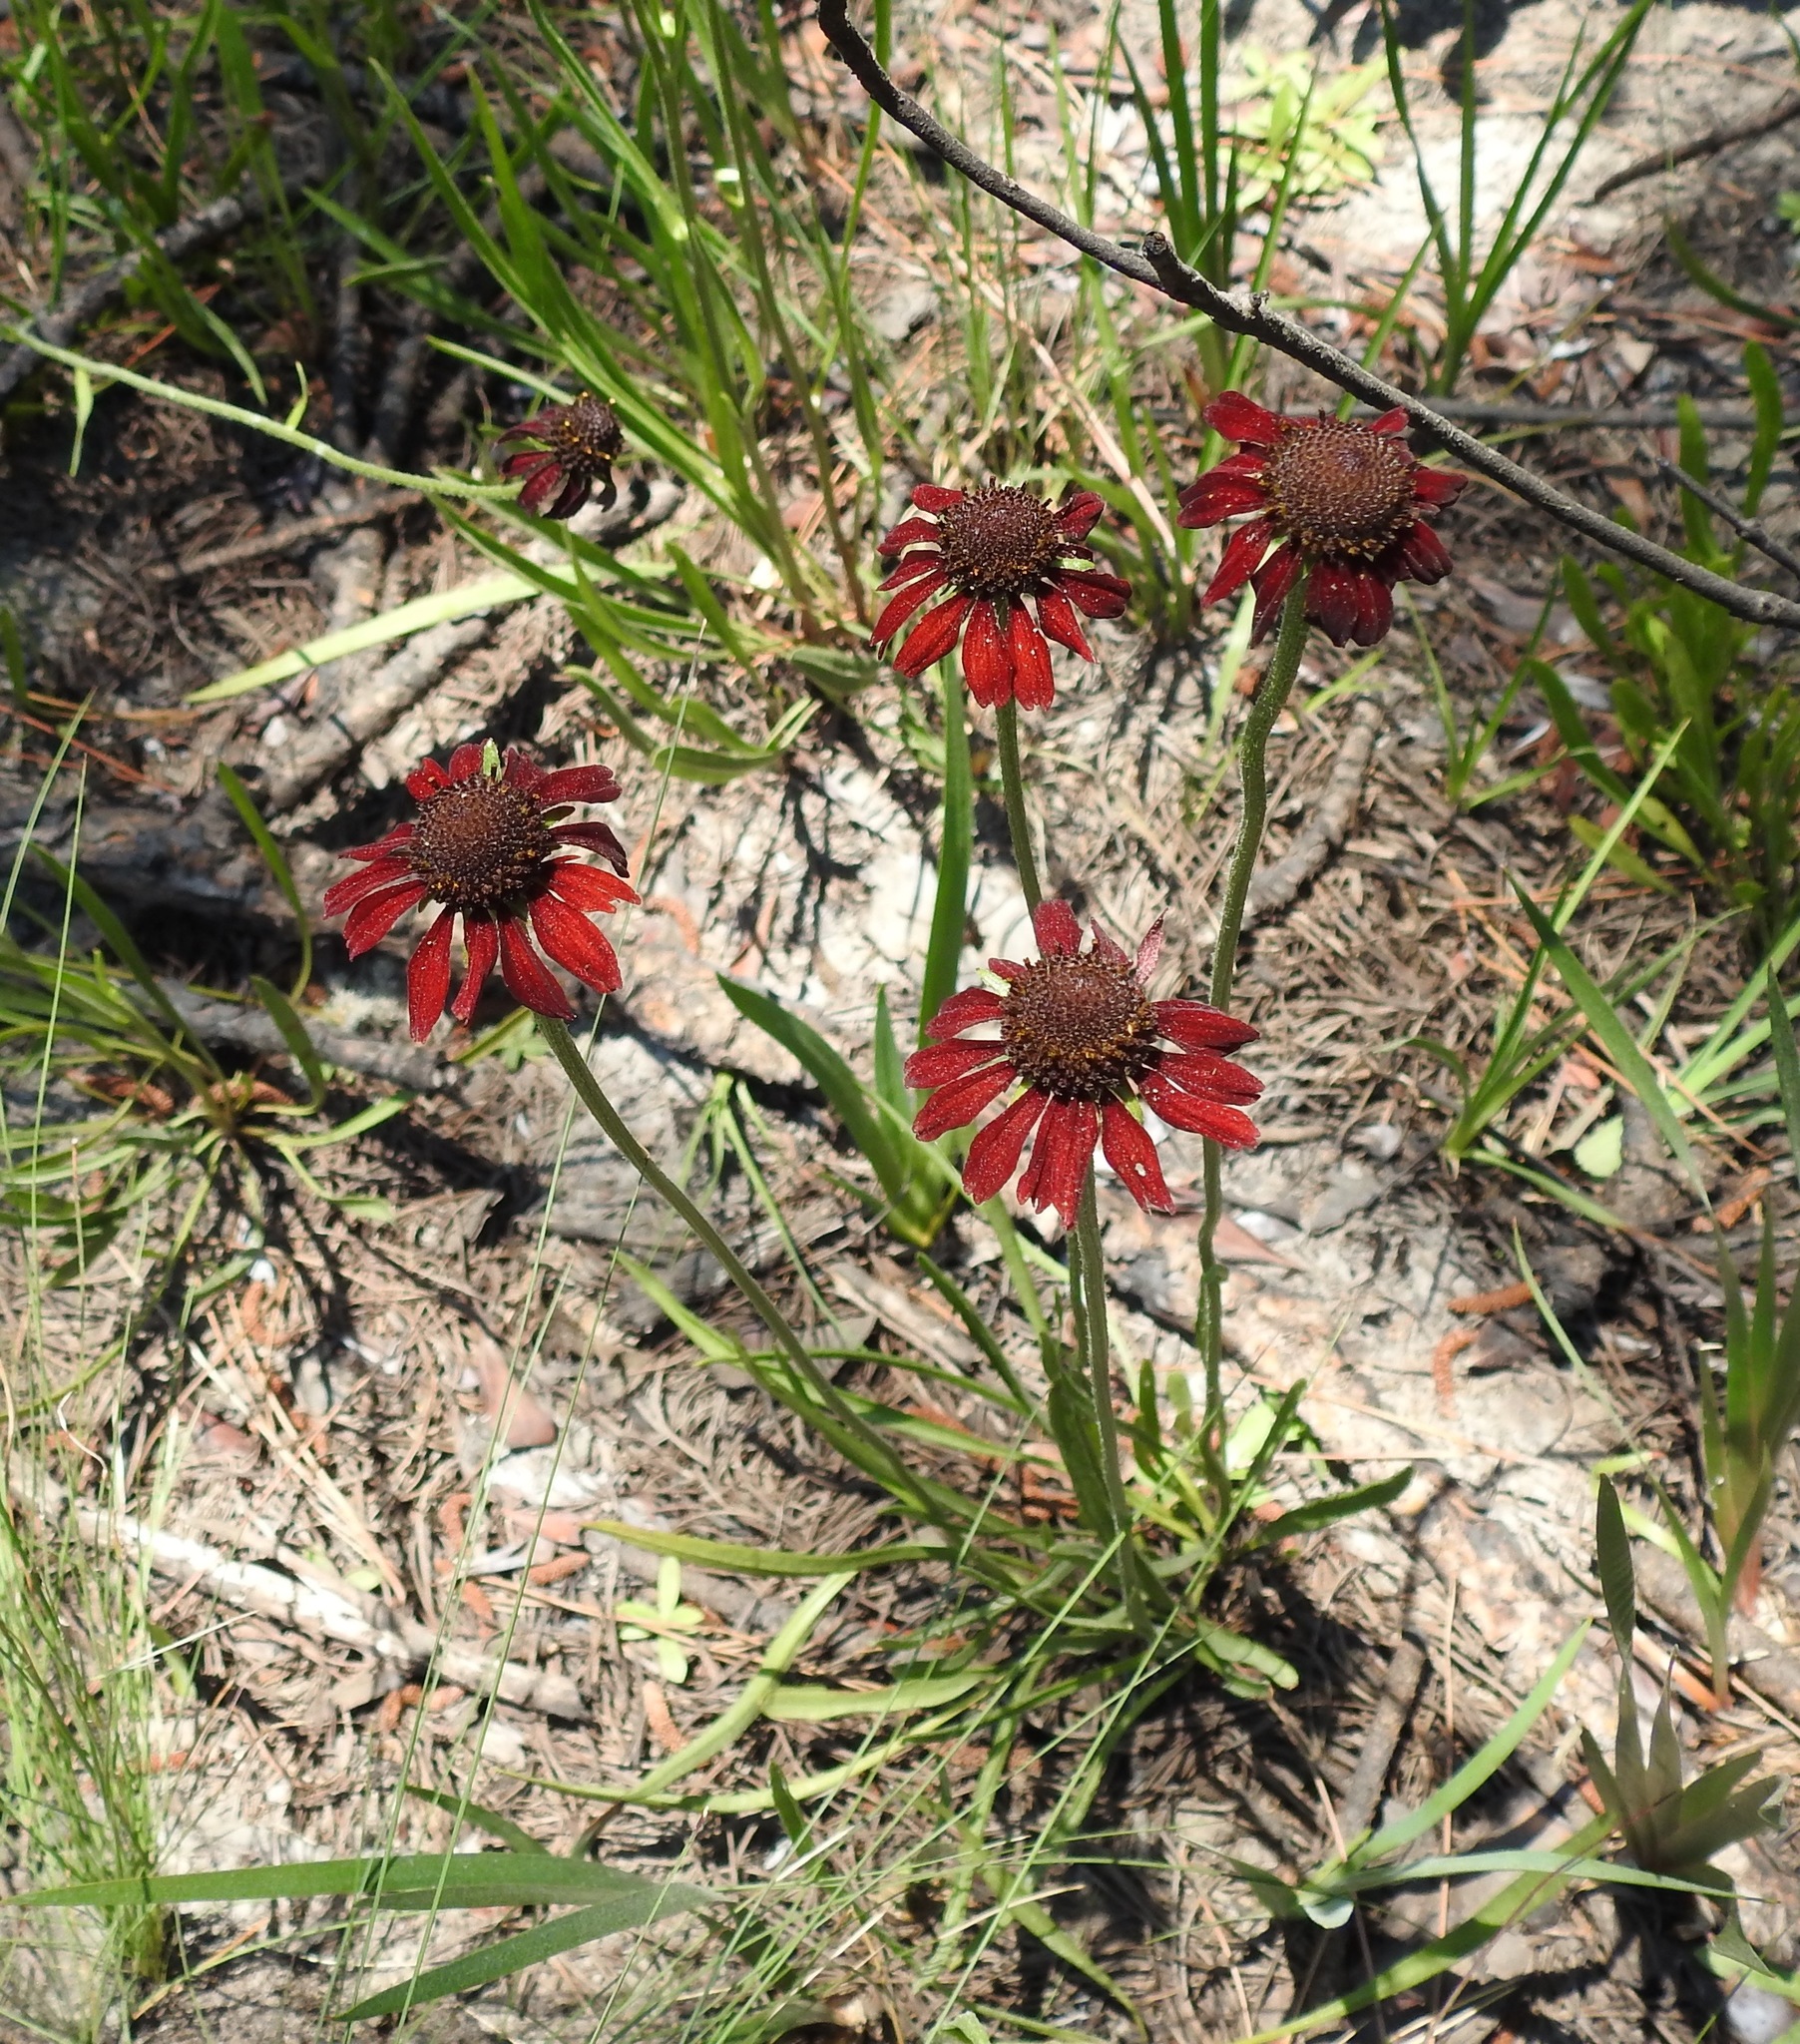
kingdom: Plantae
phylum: Tracheophyta
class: Magnoliopsida
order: Asterales
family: Asteraceae
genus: Rudbeckia
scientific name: Rudbeckia graminifolia
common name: Grass-leaf coneflower
